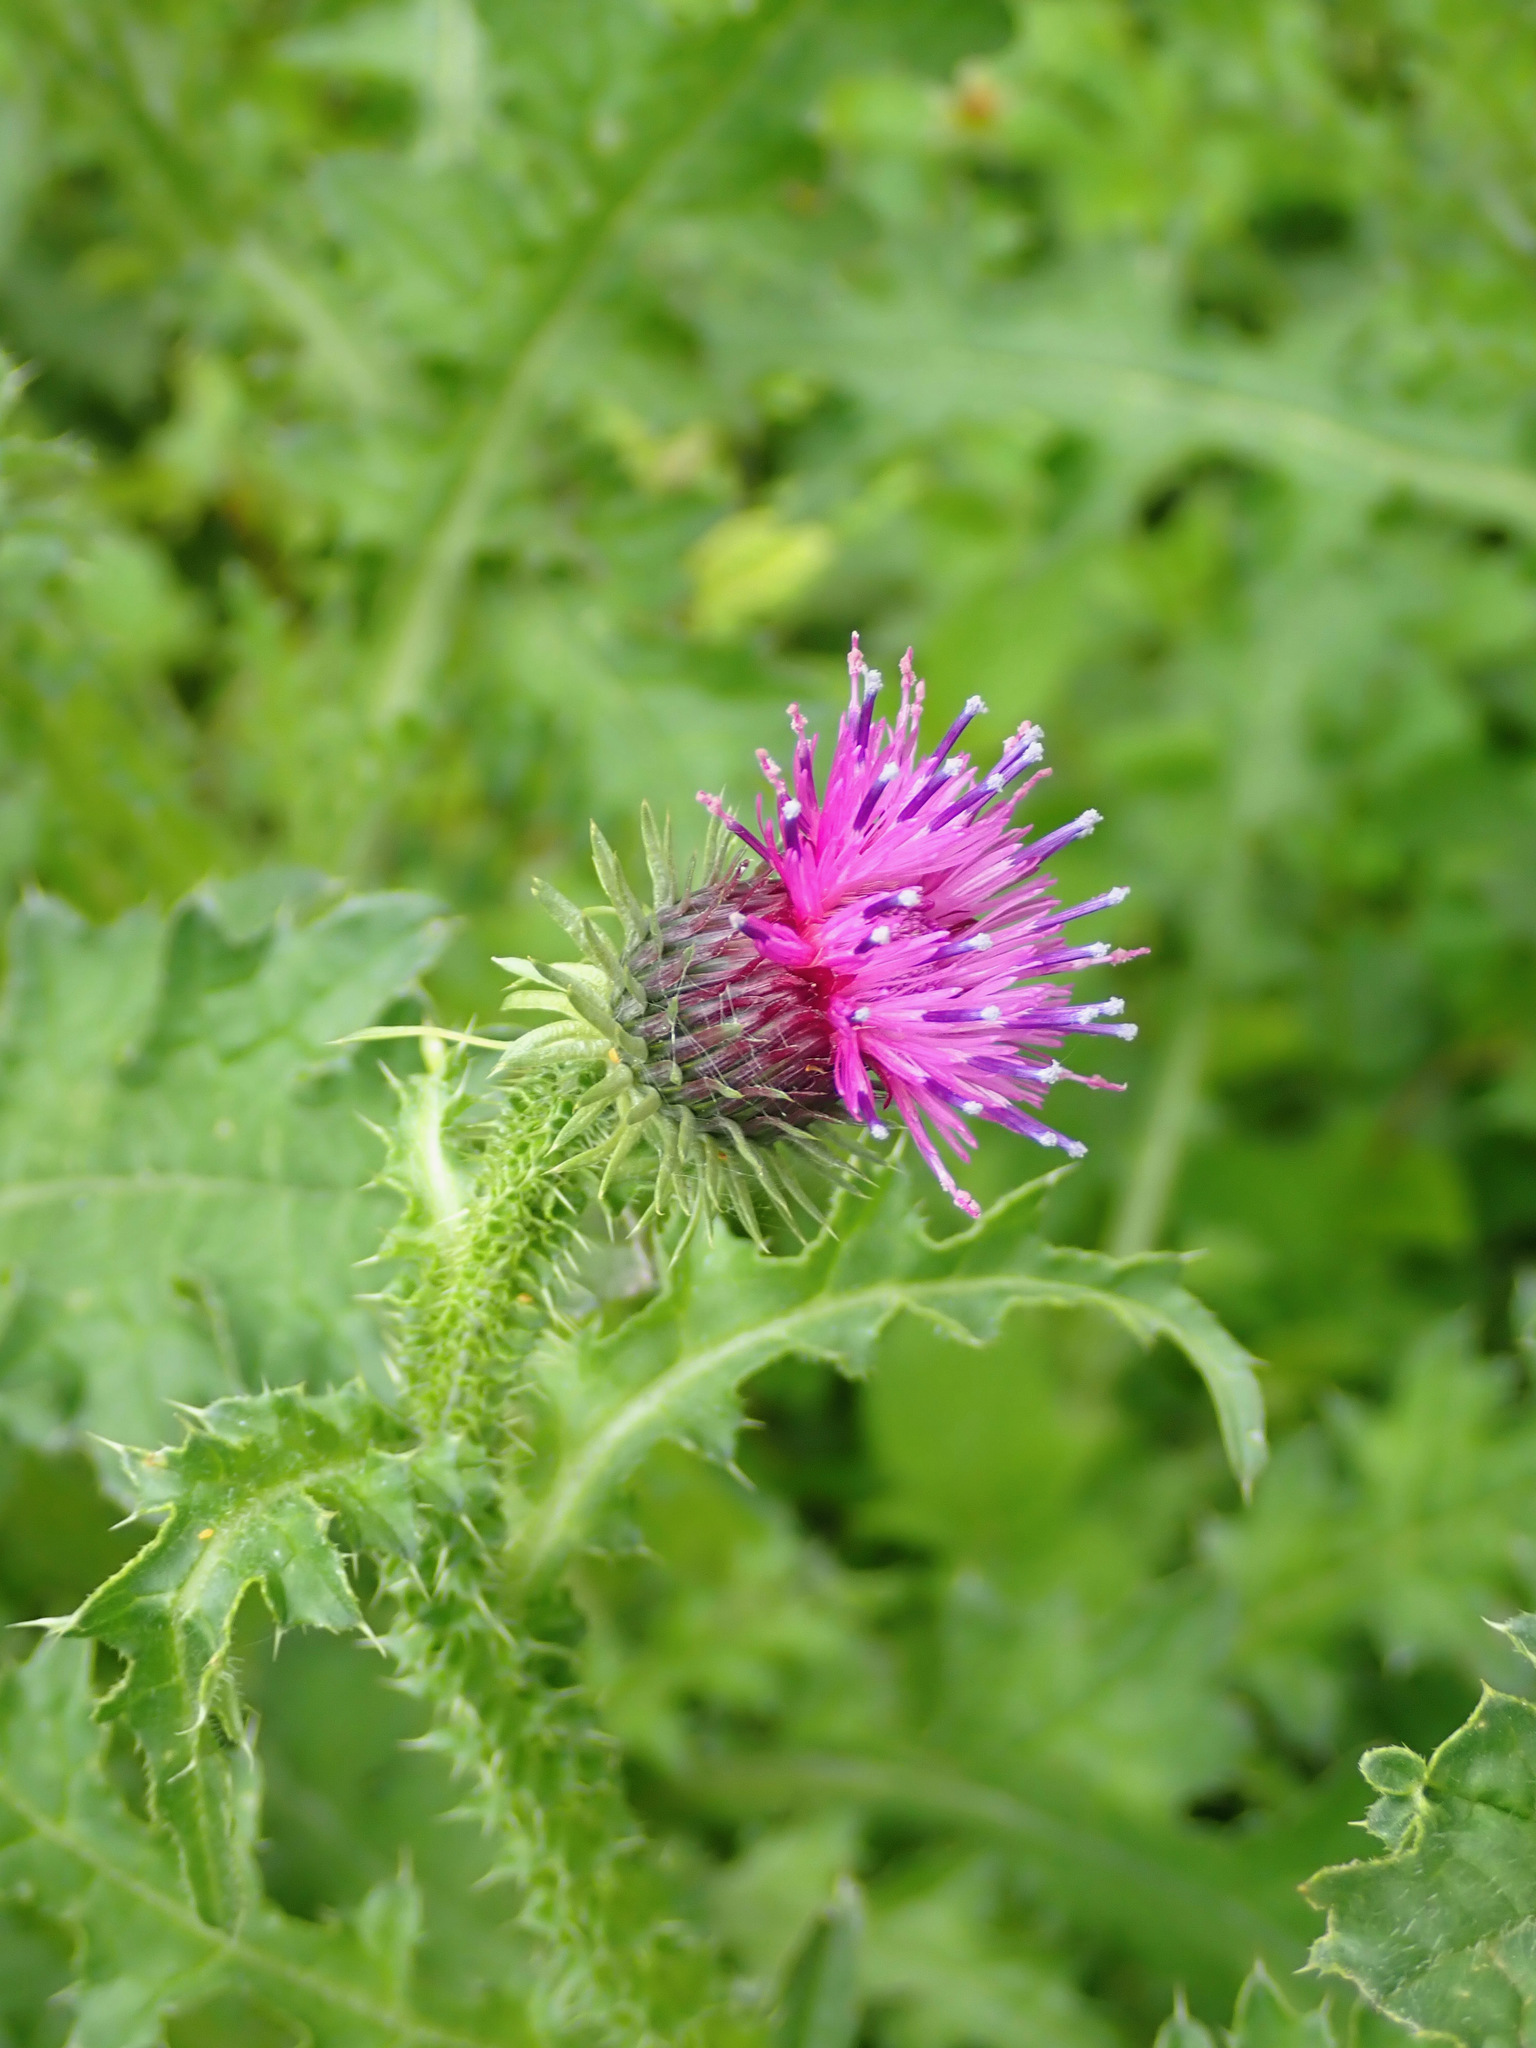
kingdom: Plantae
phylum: Tracheophyta
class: Magnoliopsida
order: Asterales
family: Asteraceae
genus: Carduus
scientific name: Carduus crispus
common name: Welted thistle
